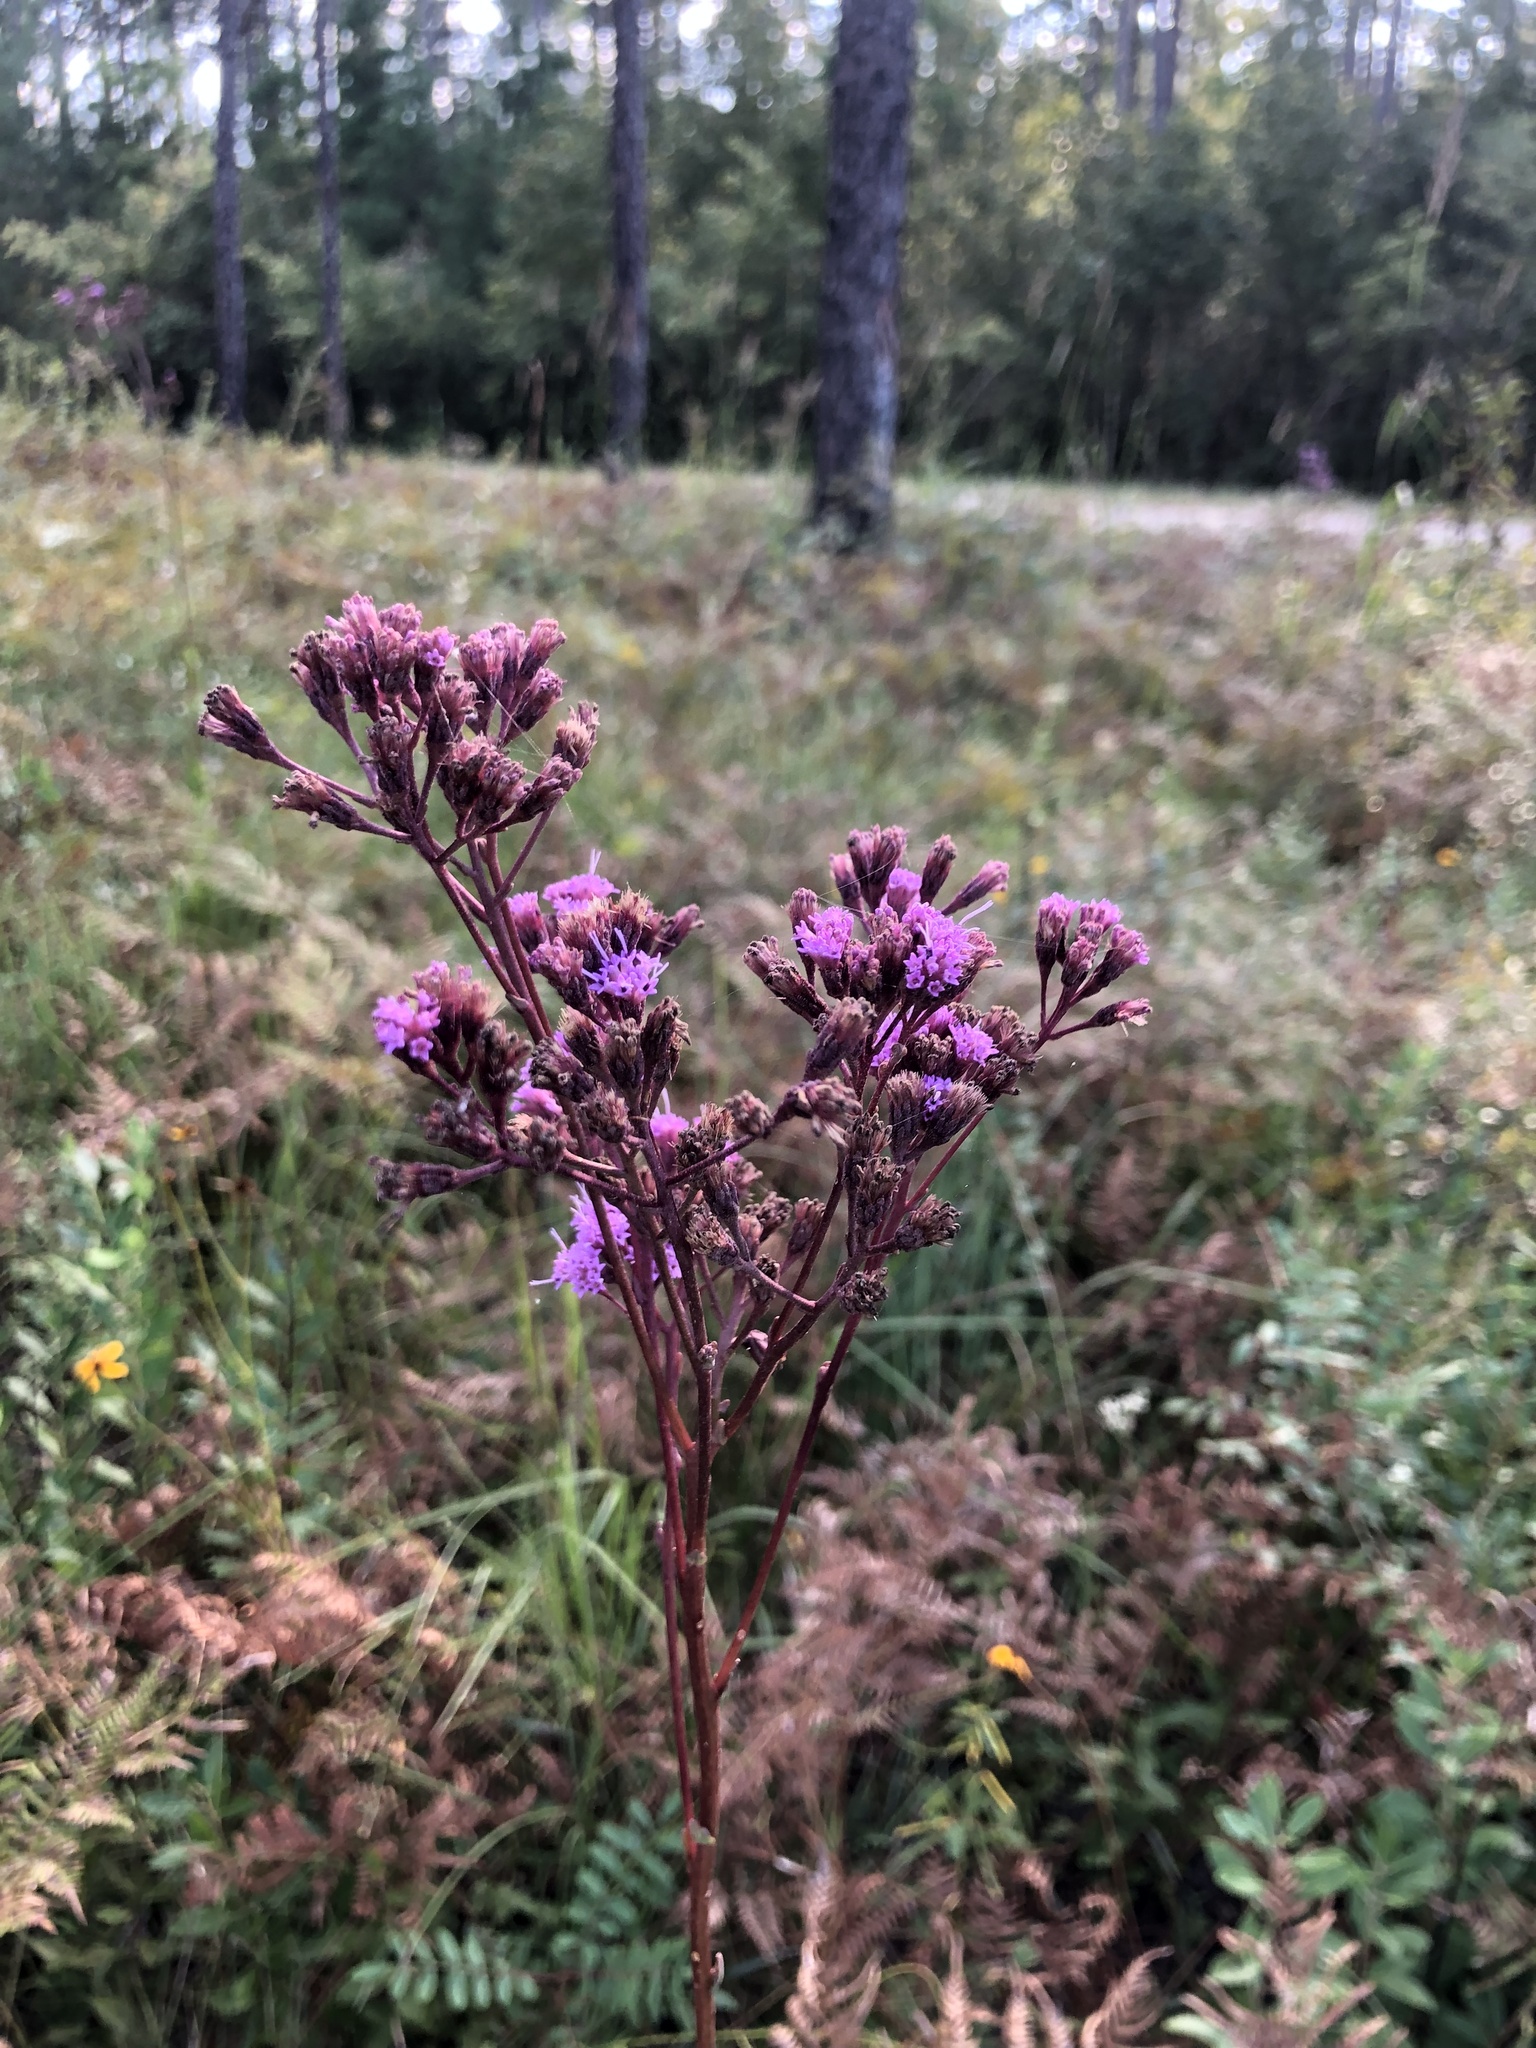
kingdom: Plantae
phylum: Tracheophyta
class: Magnoliopsida
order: Asterales
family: Asteraceae
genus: Carphephorus
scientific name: Carphephorus odoratissimus
